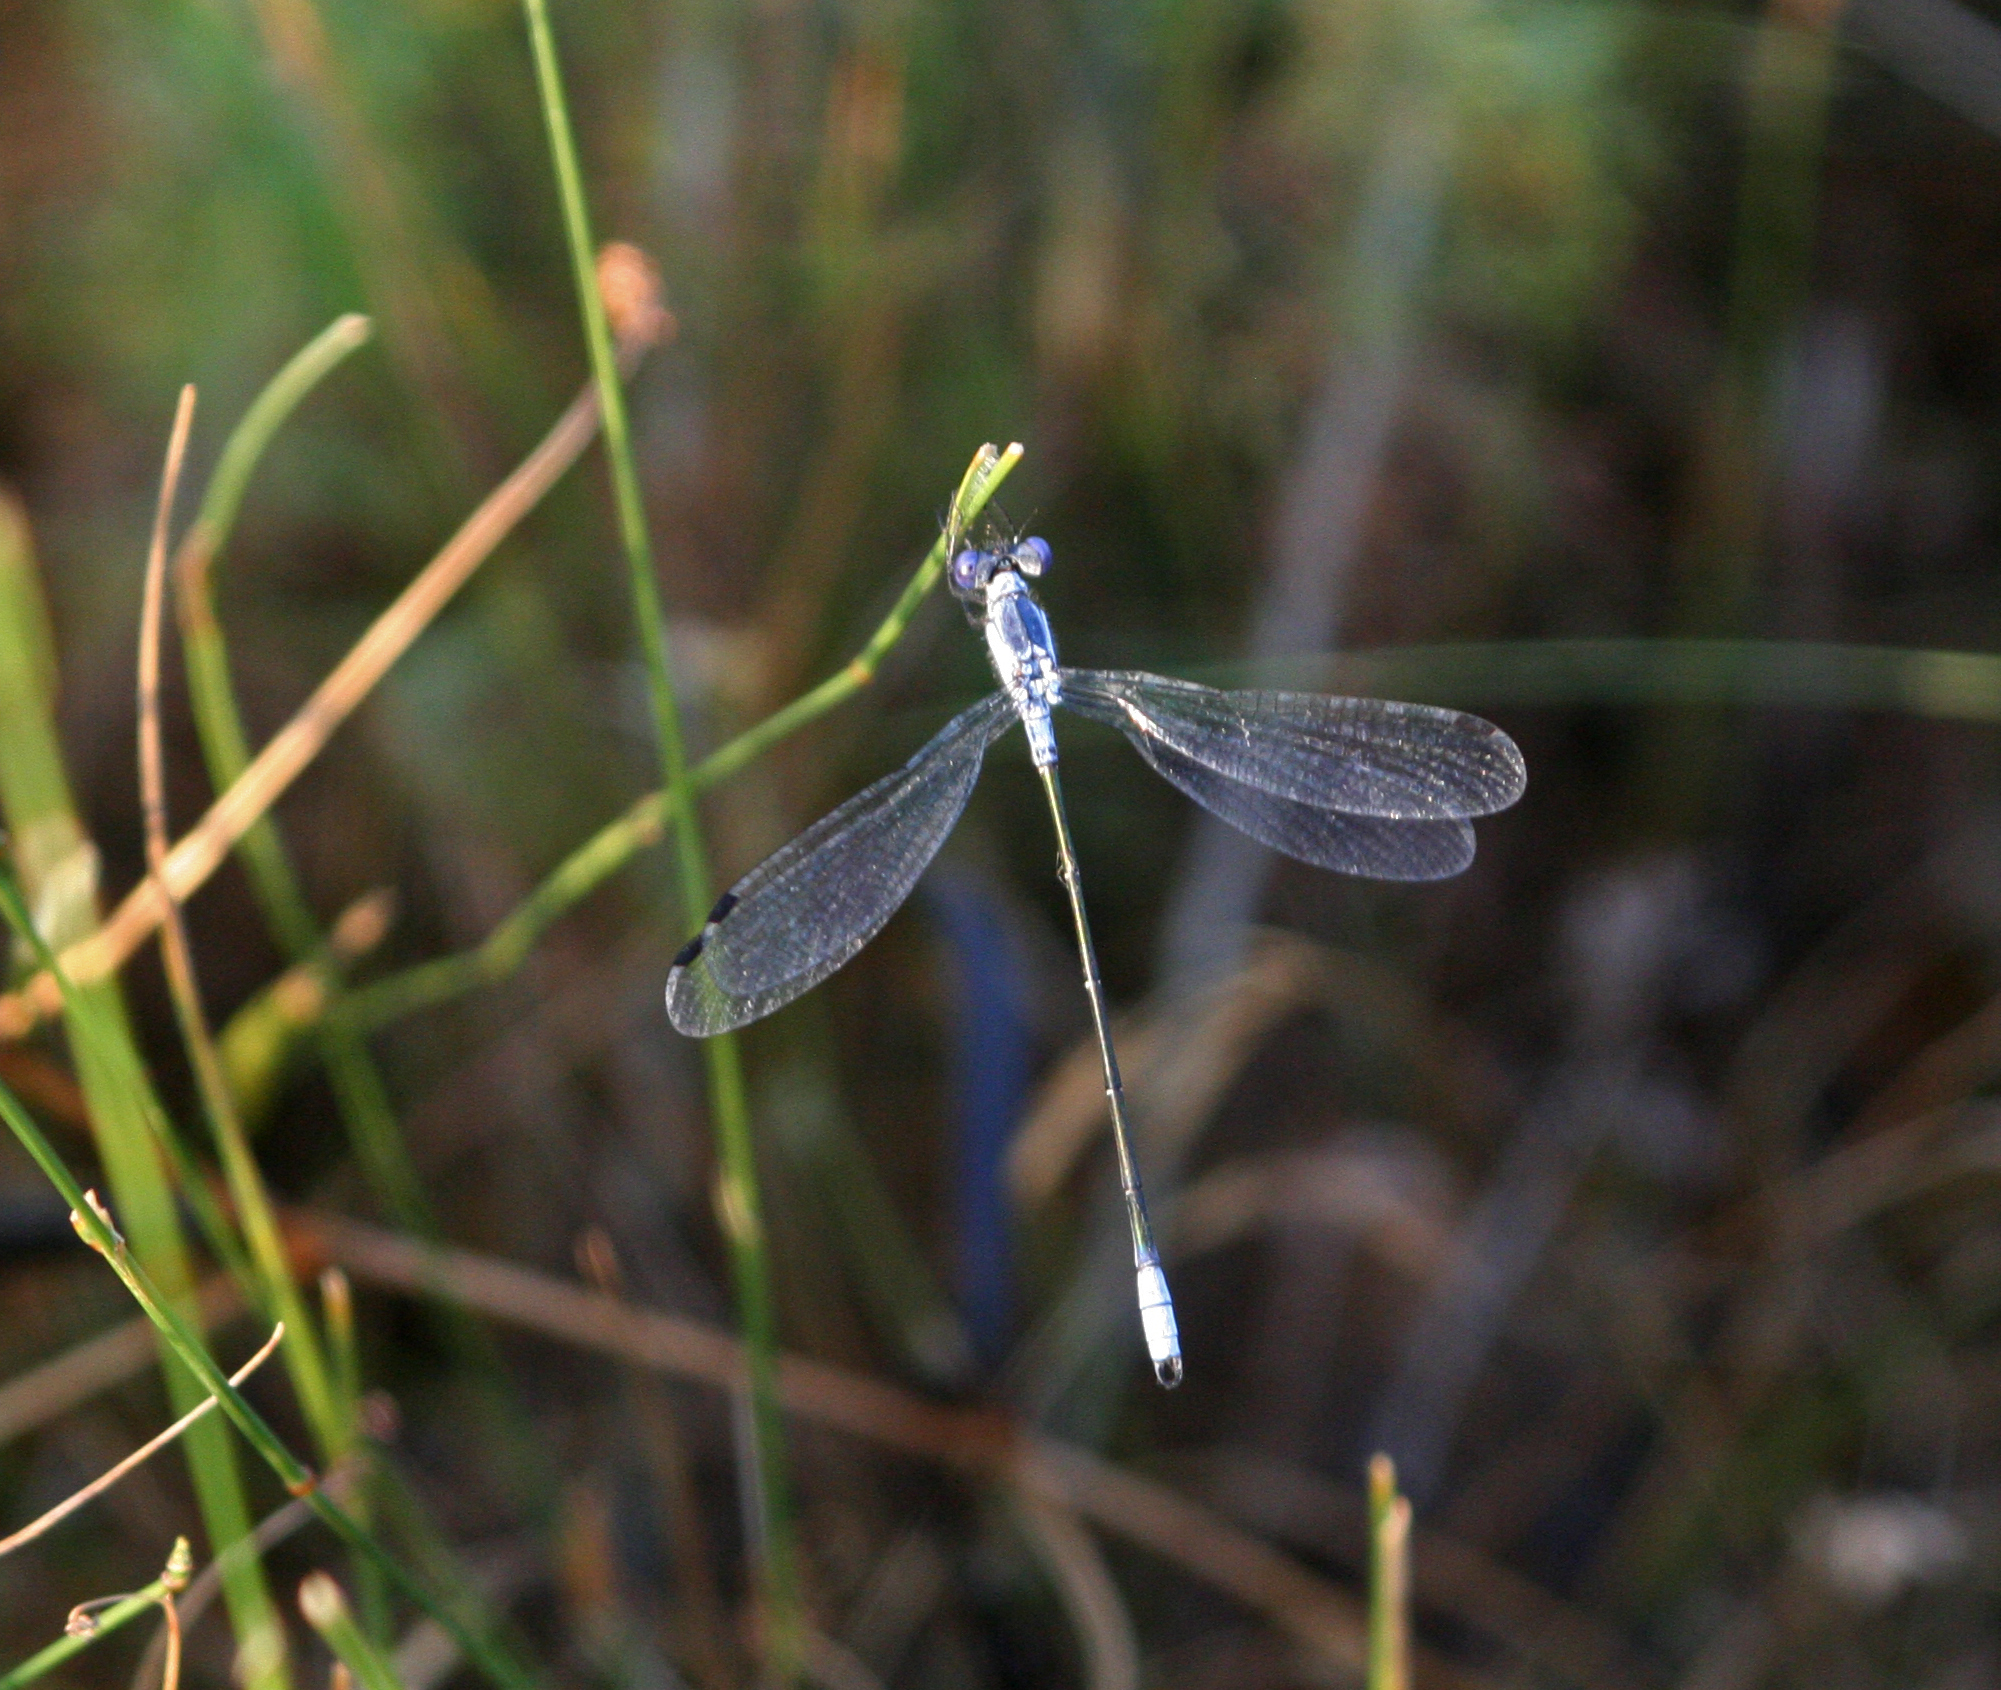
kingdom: Animalia
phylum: Arthropoda
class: Insecta
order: Odonata
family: Lestidae
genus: Lestes
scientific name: Lestes macrostigma
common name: Dark spreadwing
